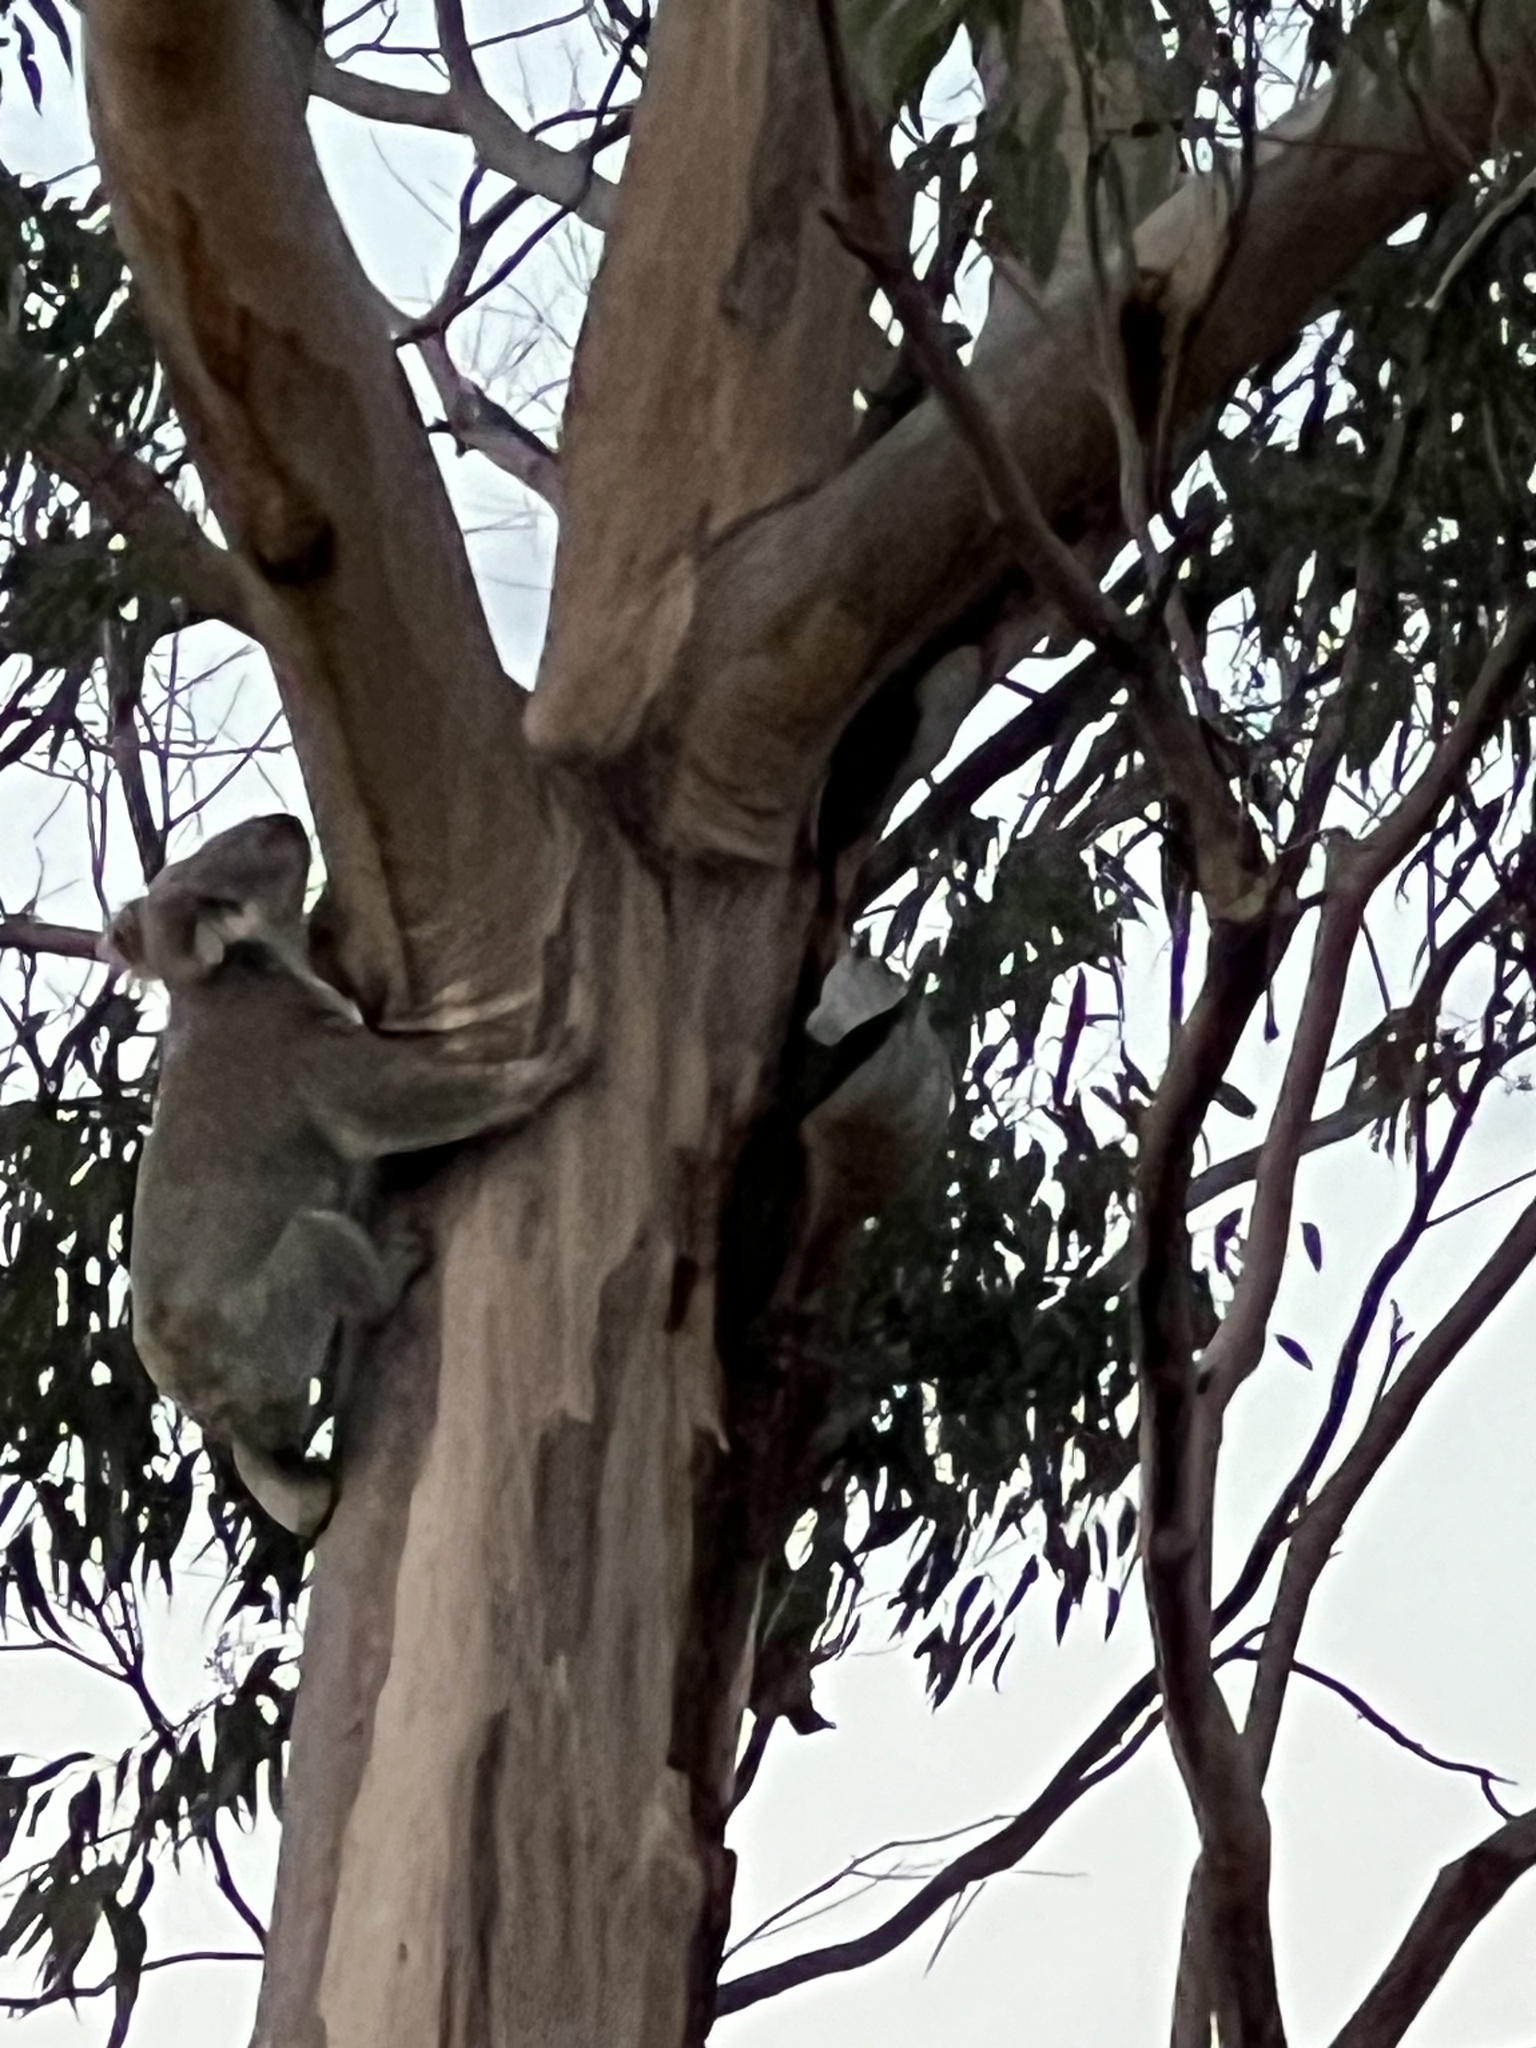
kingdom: Animalia
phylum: Chordata
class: Mammalia
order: Diprotodontia
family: Phascolarctidae
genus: Phascolarctos
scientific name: Phascolarctos cinereus
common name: Koala
